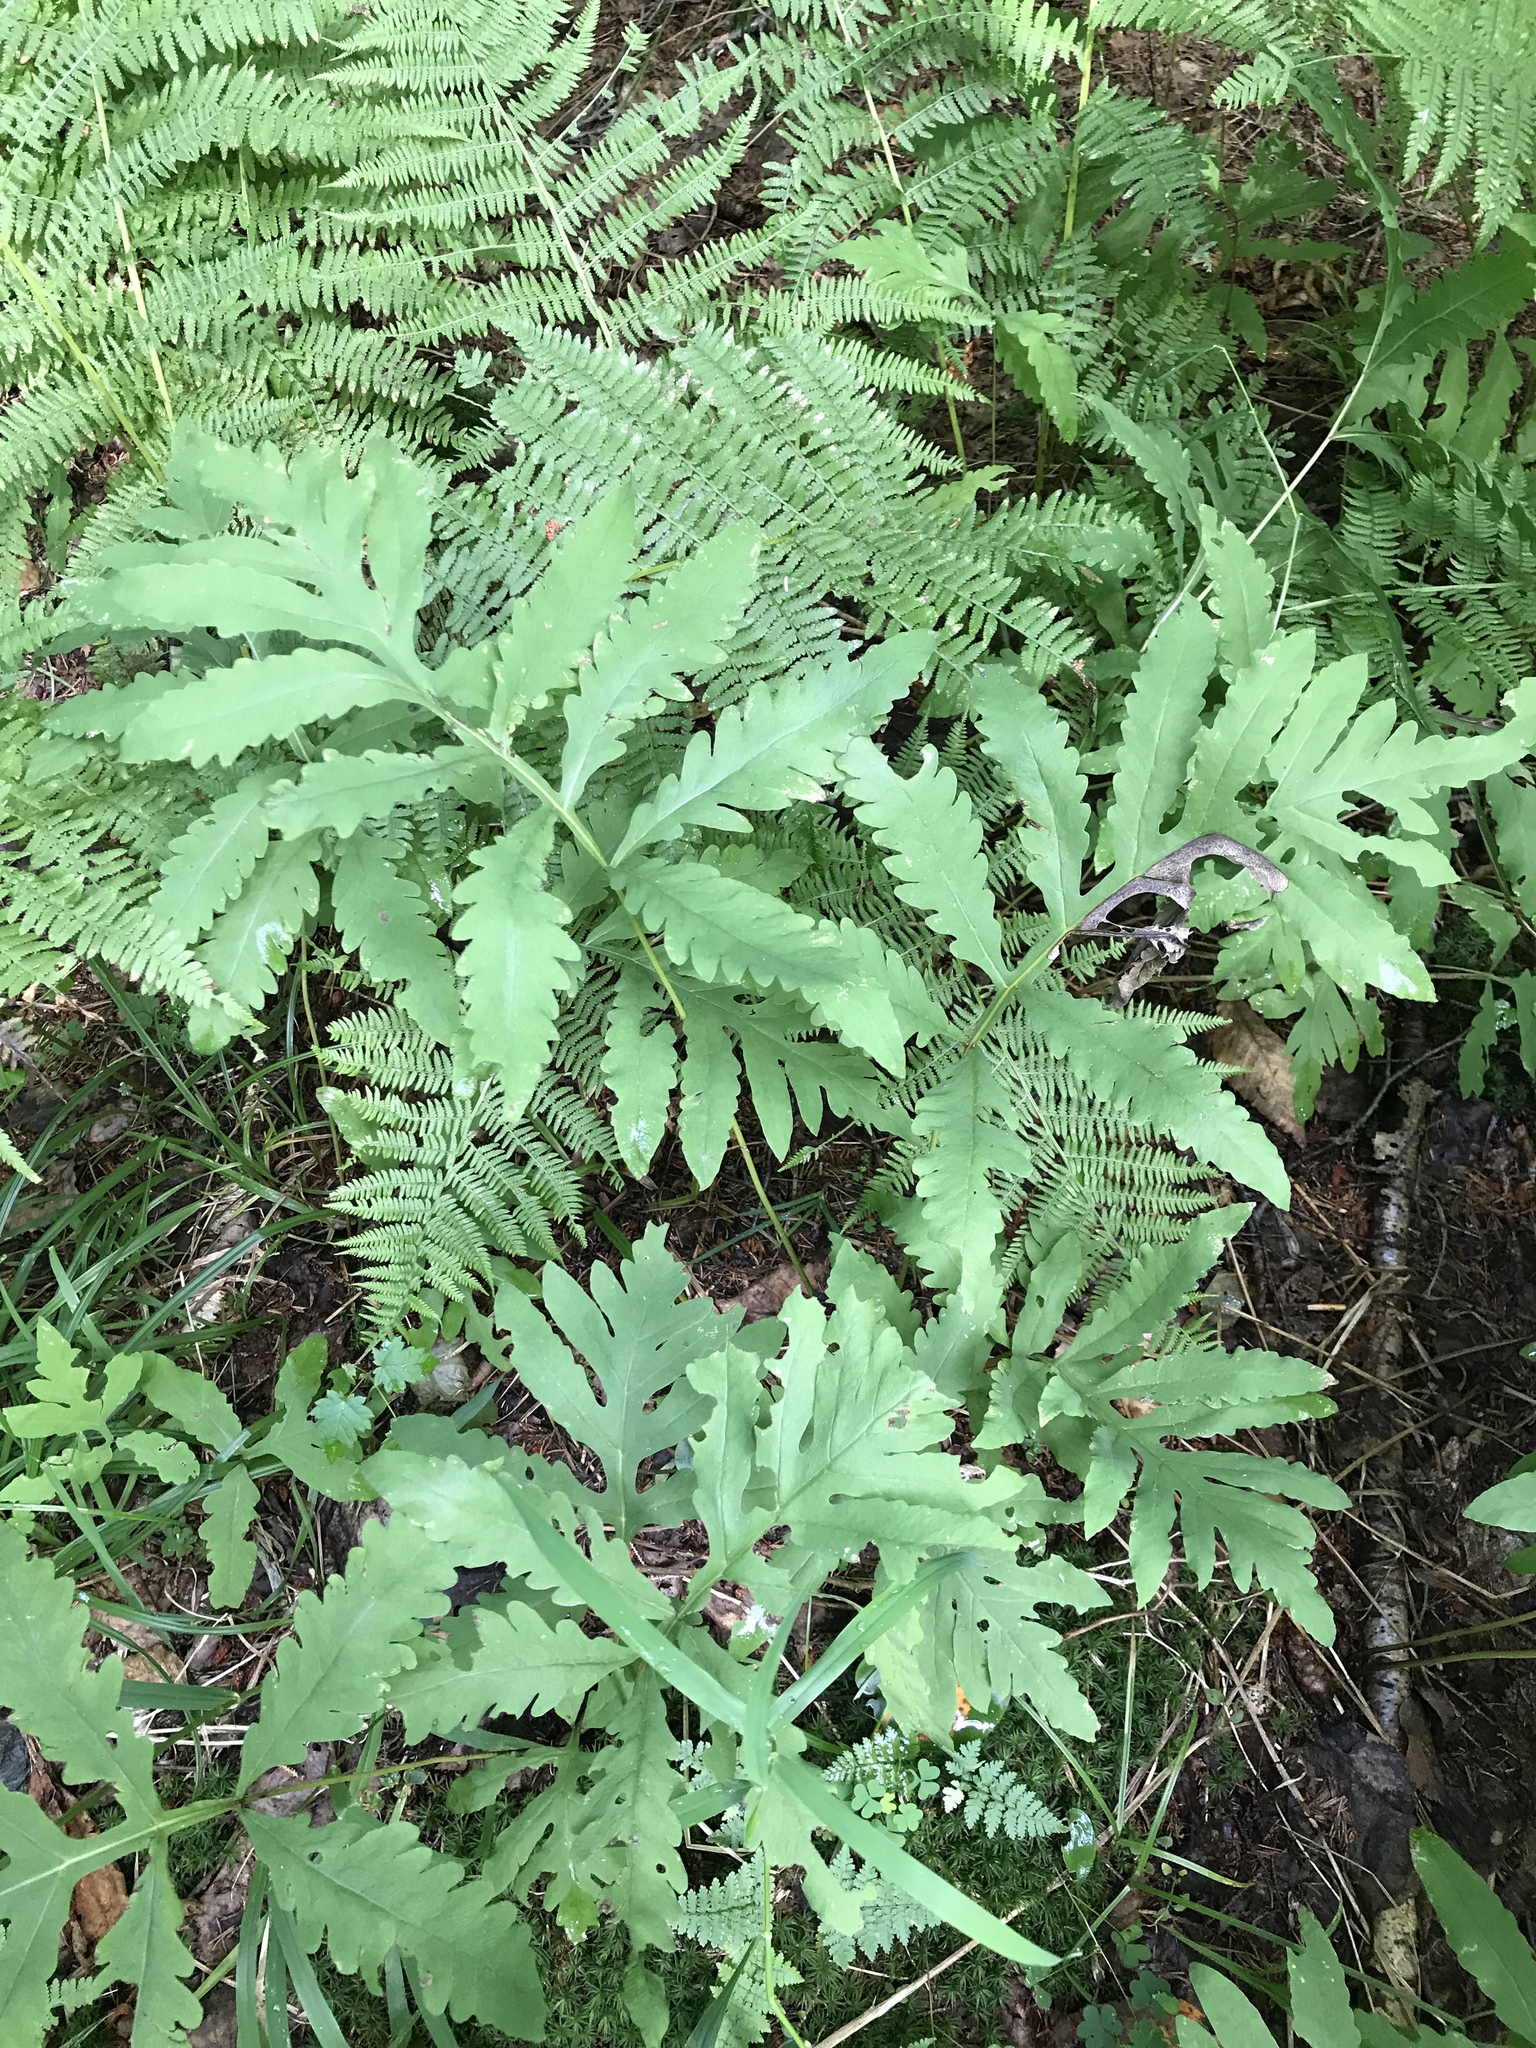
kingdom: Plantae
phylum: Tracheophyta
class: Polypodiopsida
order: Polypodiales
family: Onocleaceae
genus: Onoclea
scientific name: Onoclea sensibilis
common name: Sensitive fern
